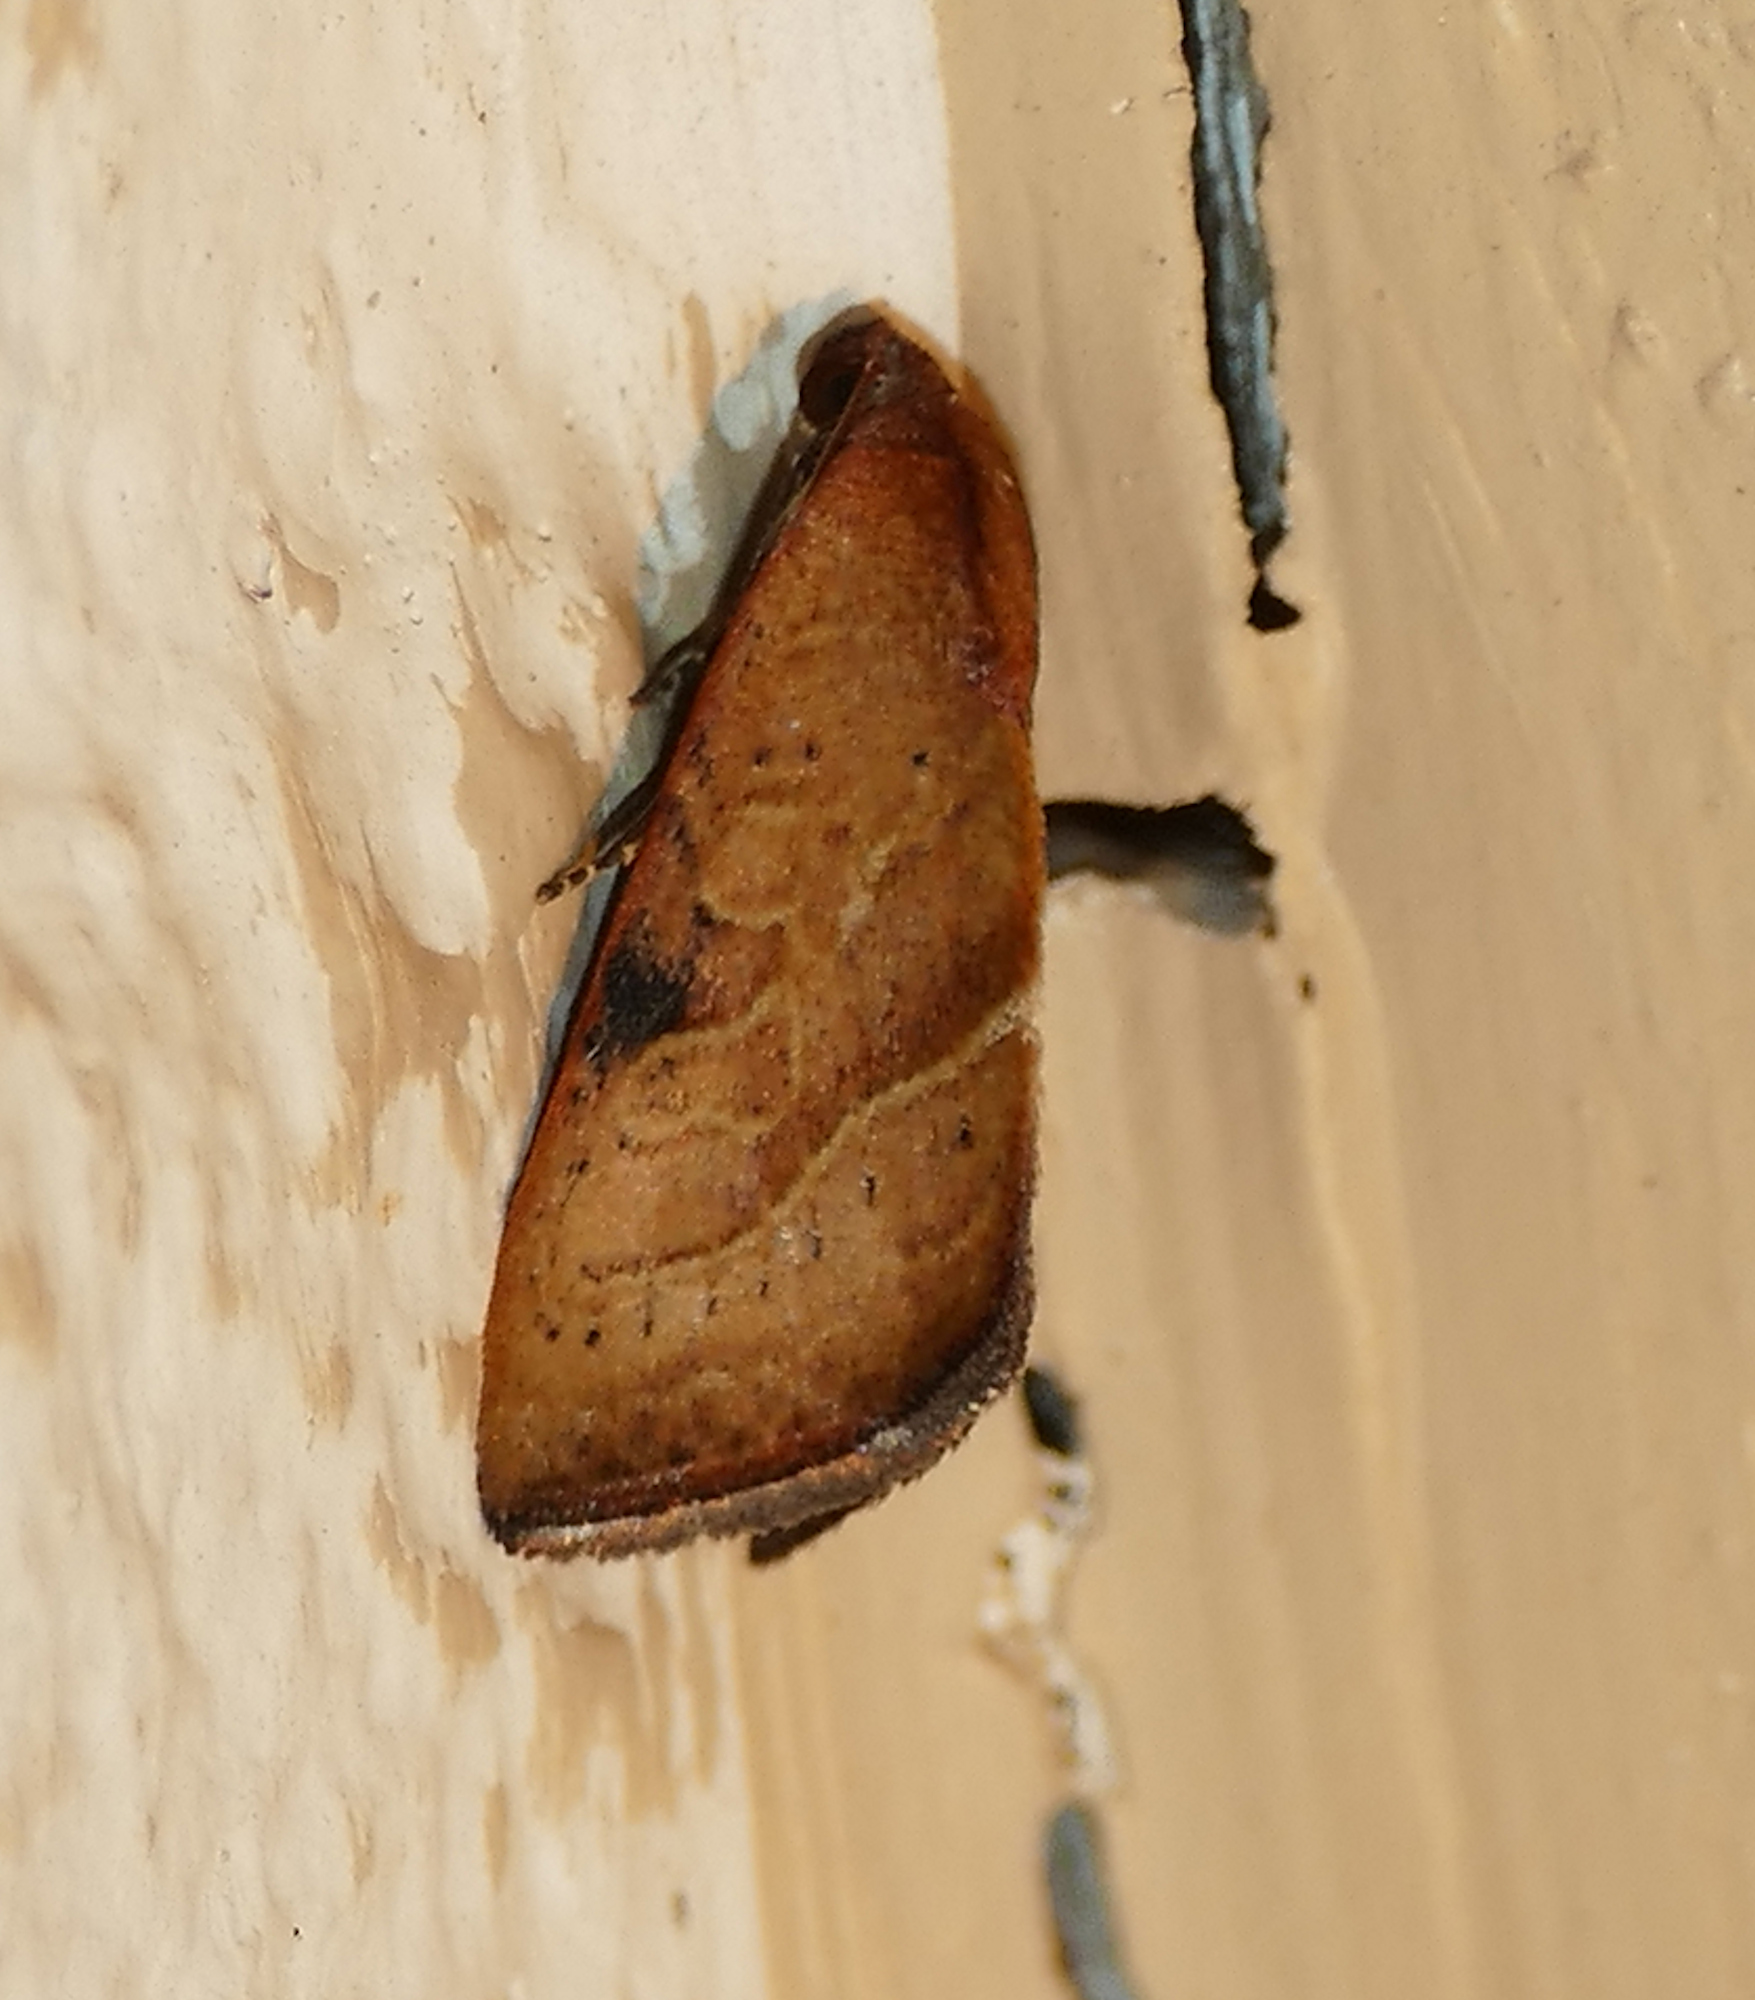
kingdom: Animalia
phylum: Arthropoda
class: Insecta
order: Lepidoptera
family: Noctuidae
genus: Galgula
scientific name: Galgula partita
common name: Wedgeling
